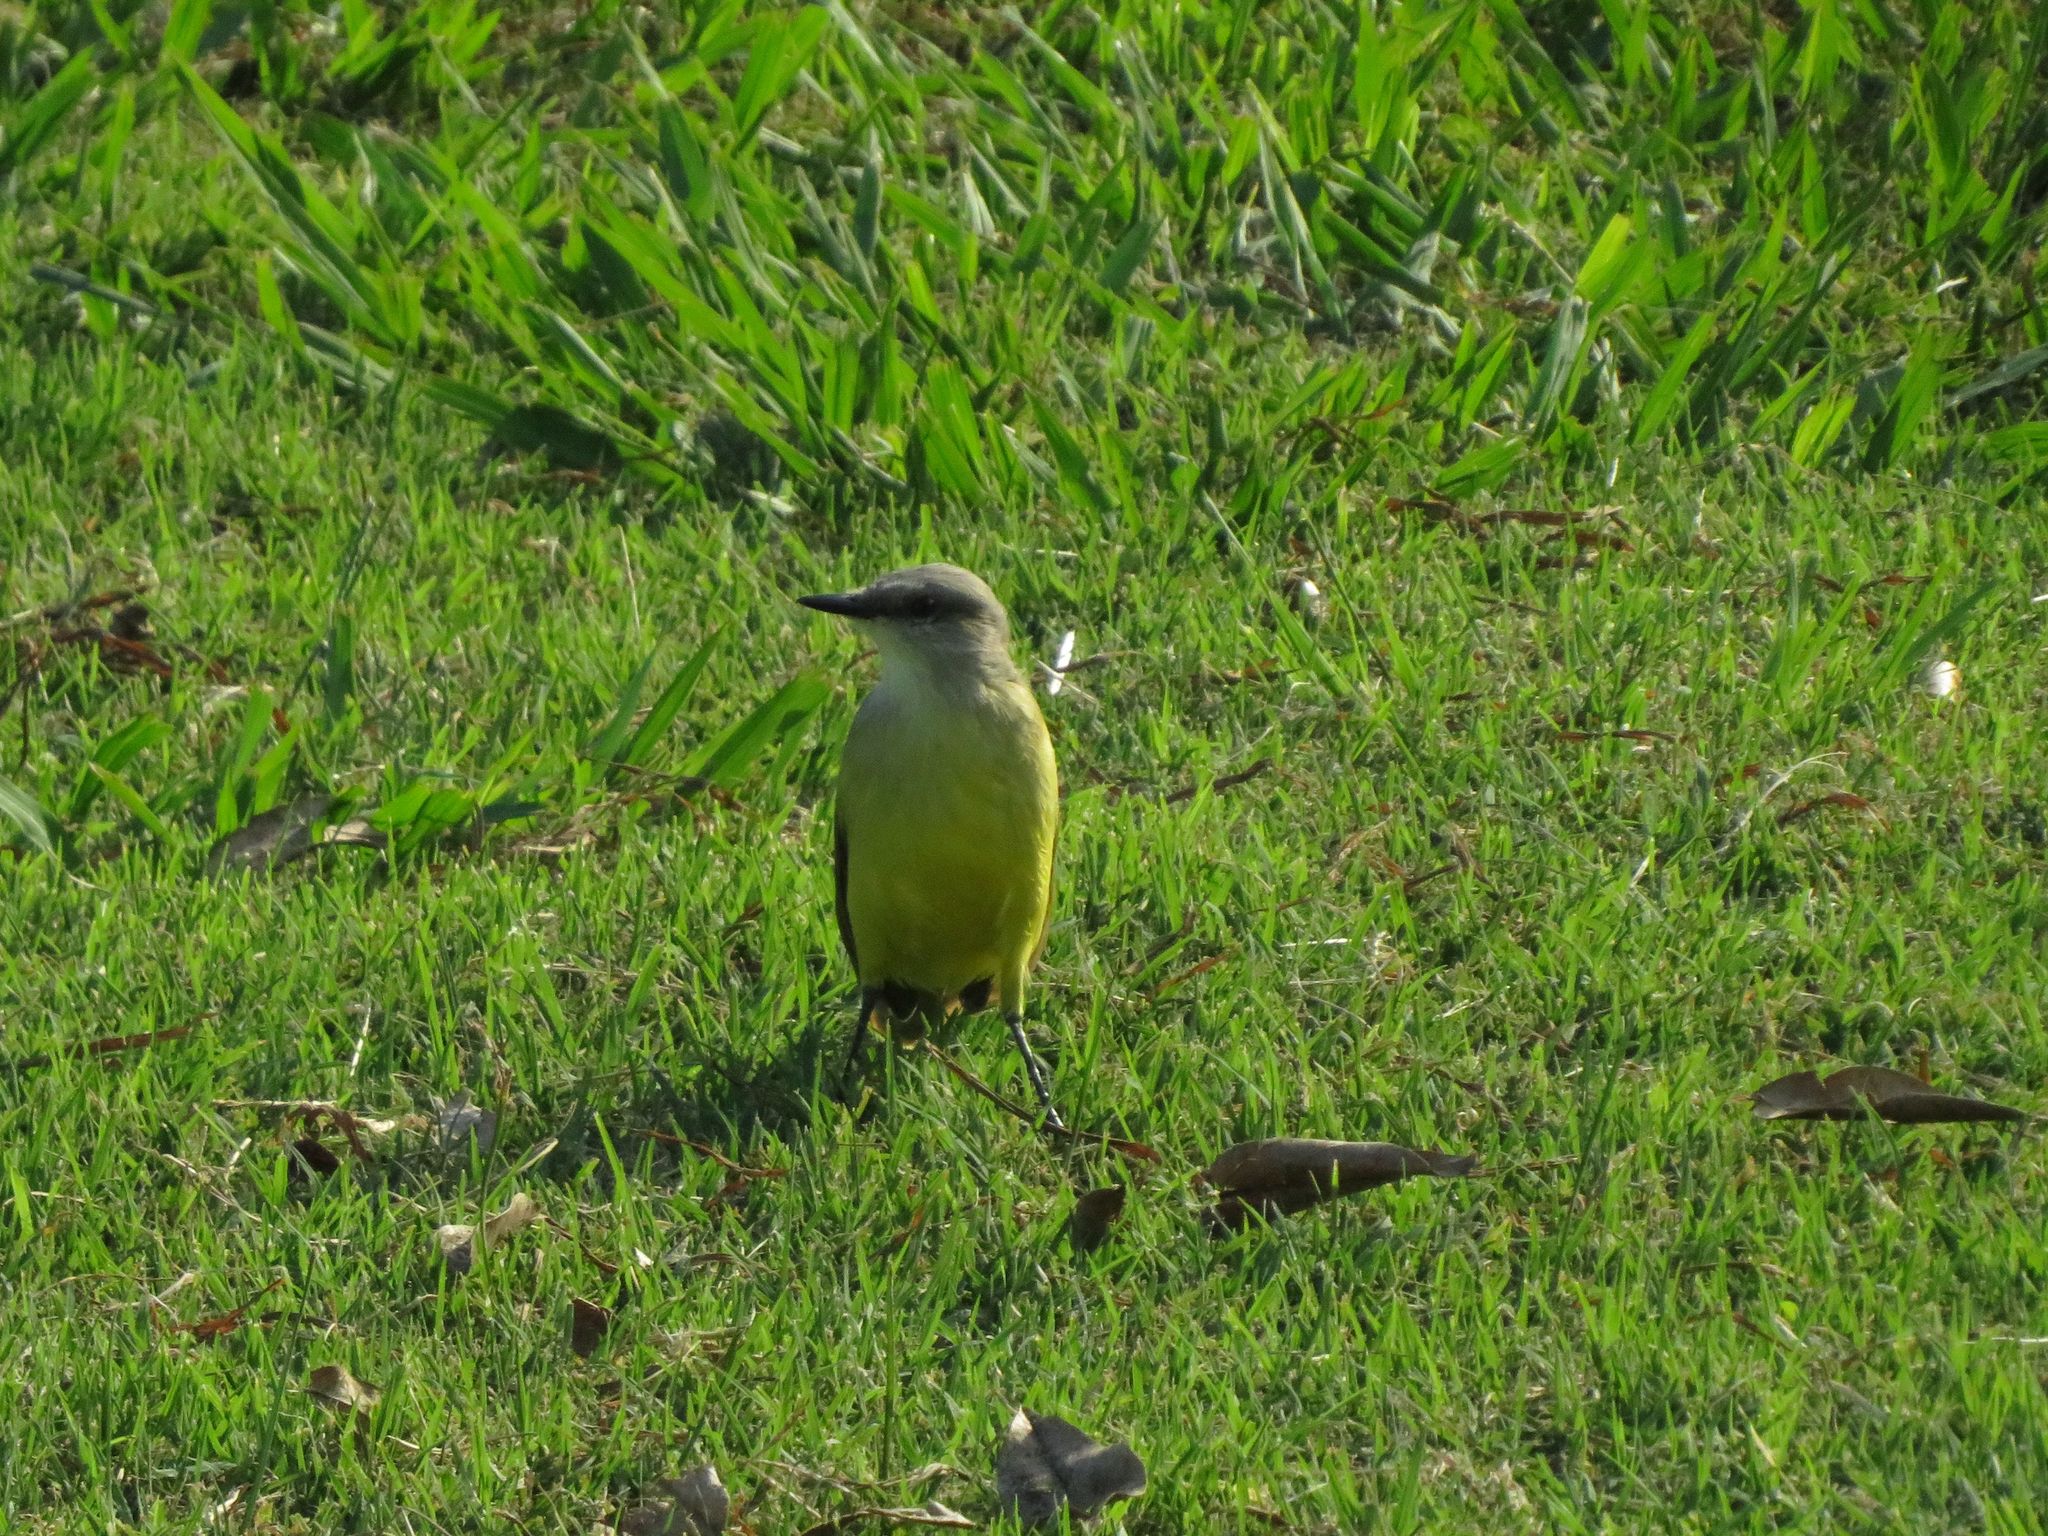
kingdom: Animalia
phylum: Chordata
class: Aves
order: Passeriformes
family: Tyrannidae
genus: Machetornis
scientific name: Machetornis rixosa
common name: Cattle tyrant
